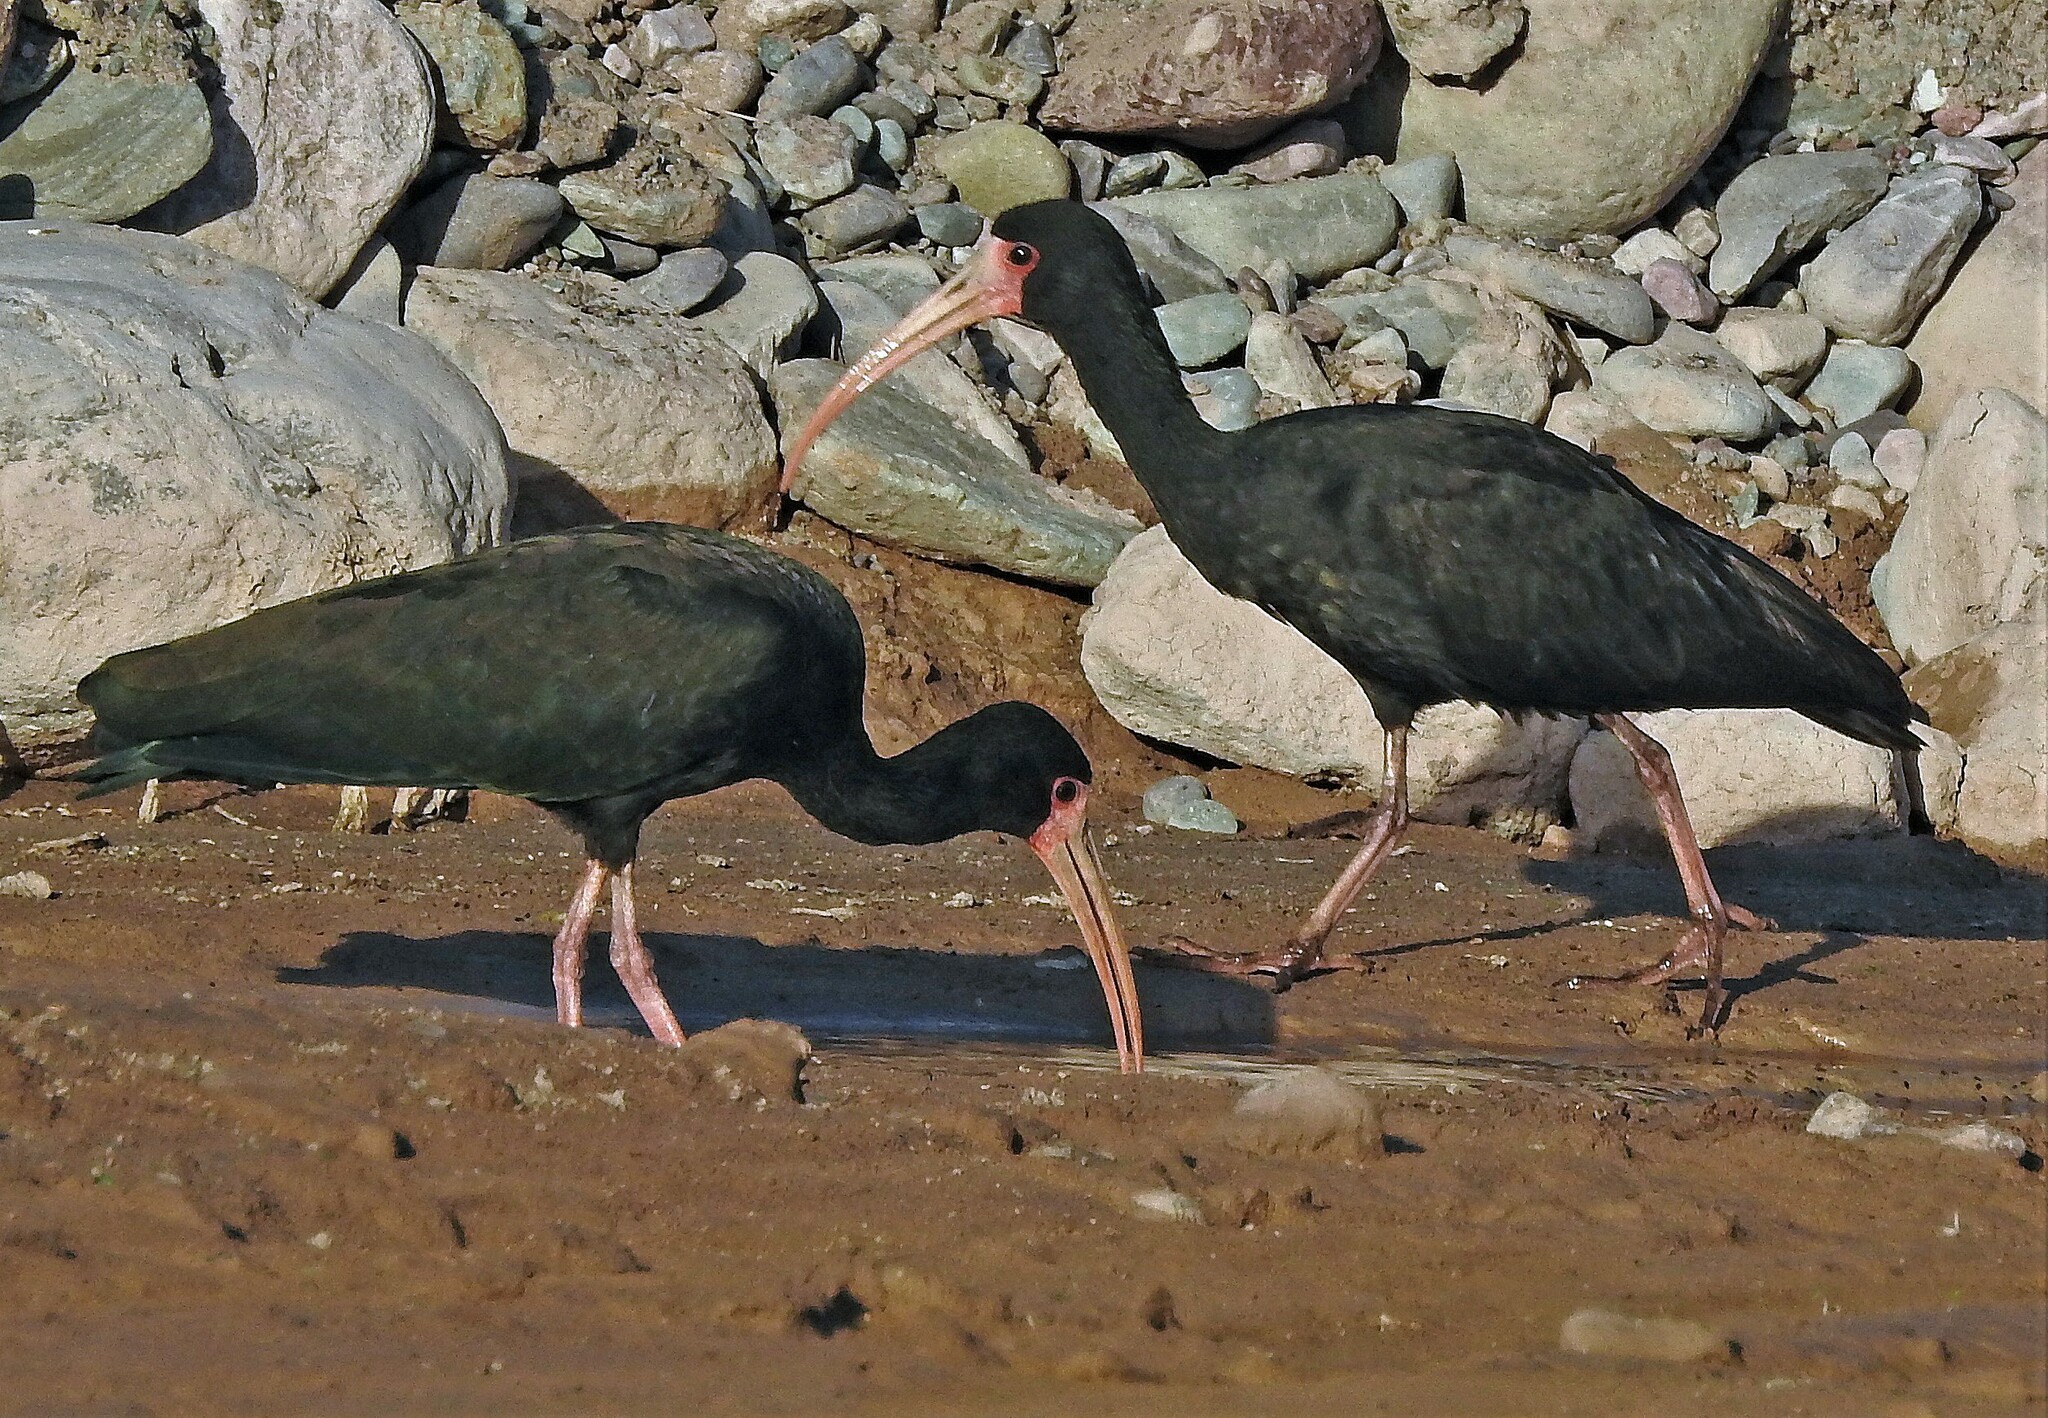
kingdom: Animalia
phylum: Chordata
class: Aves
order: Pelecaniformes
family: Threskiornithidae
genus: Phimosus
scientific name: Phimosus infuscatus
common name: Bare-faced ibis
